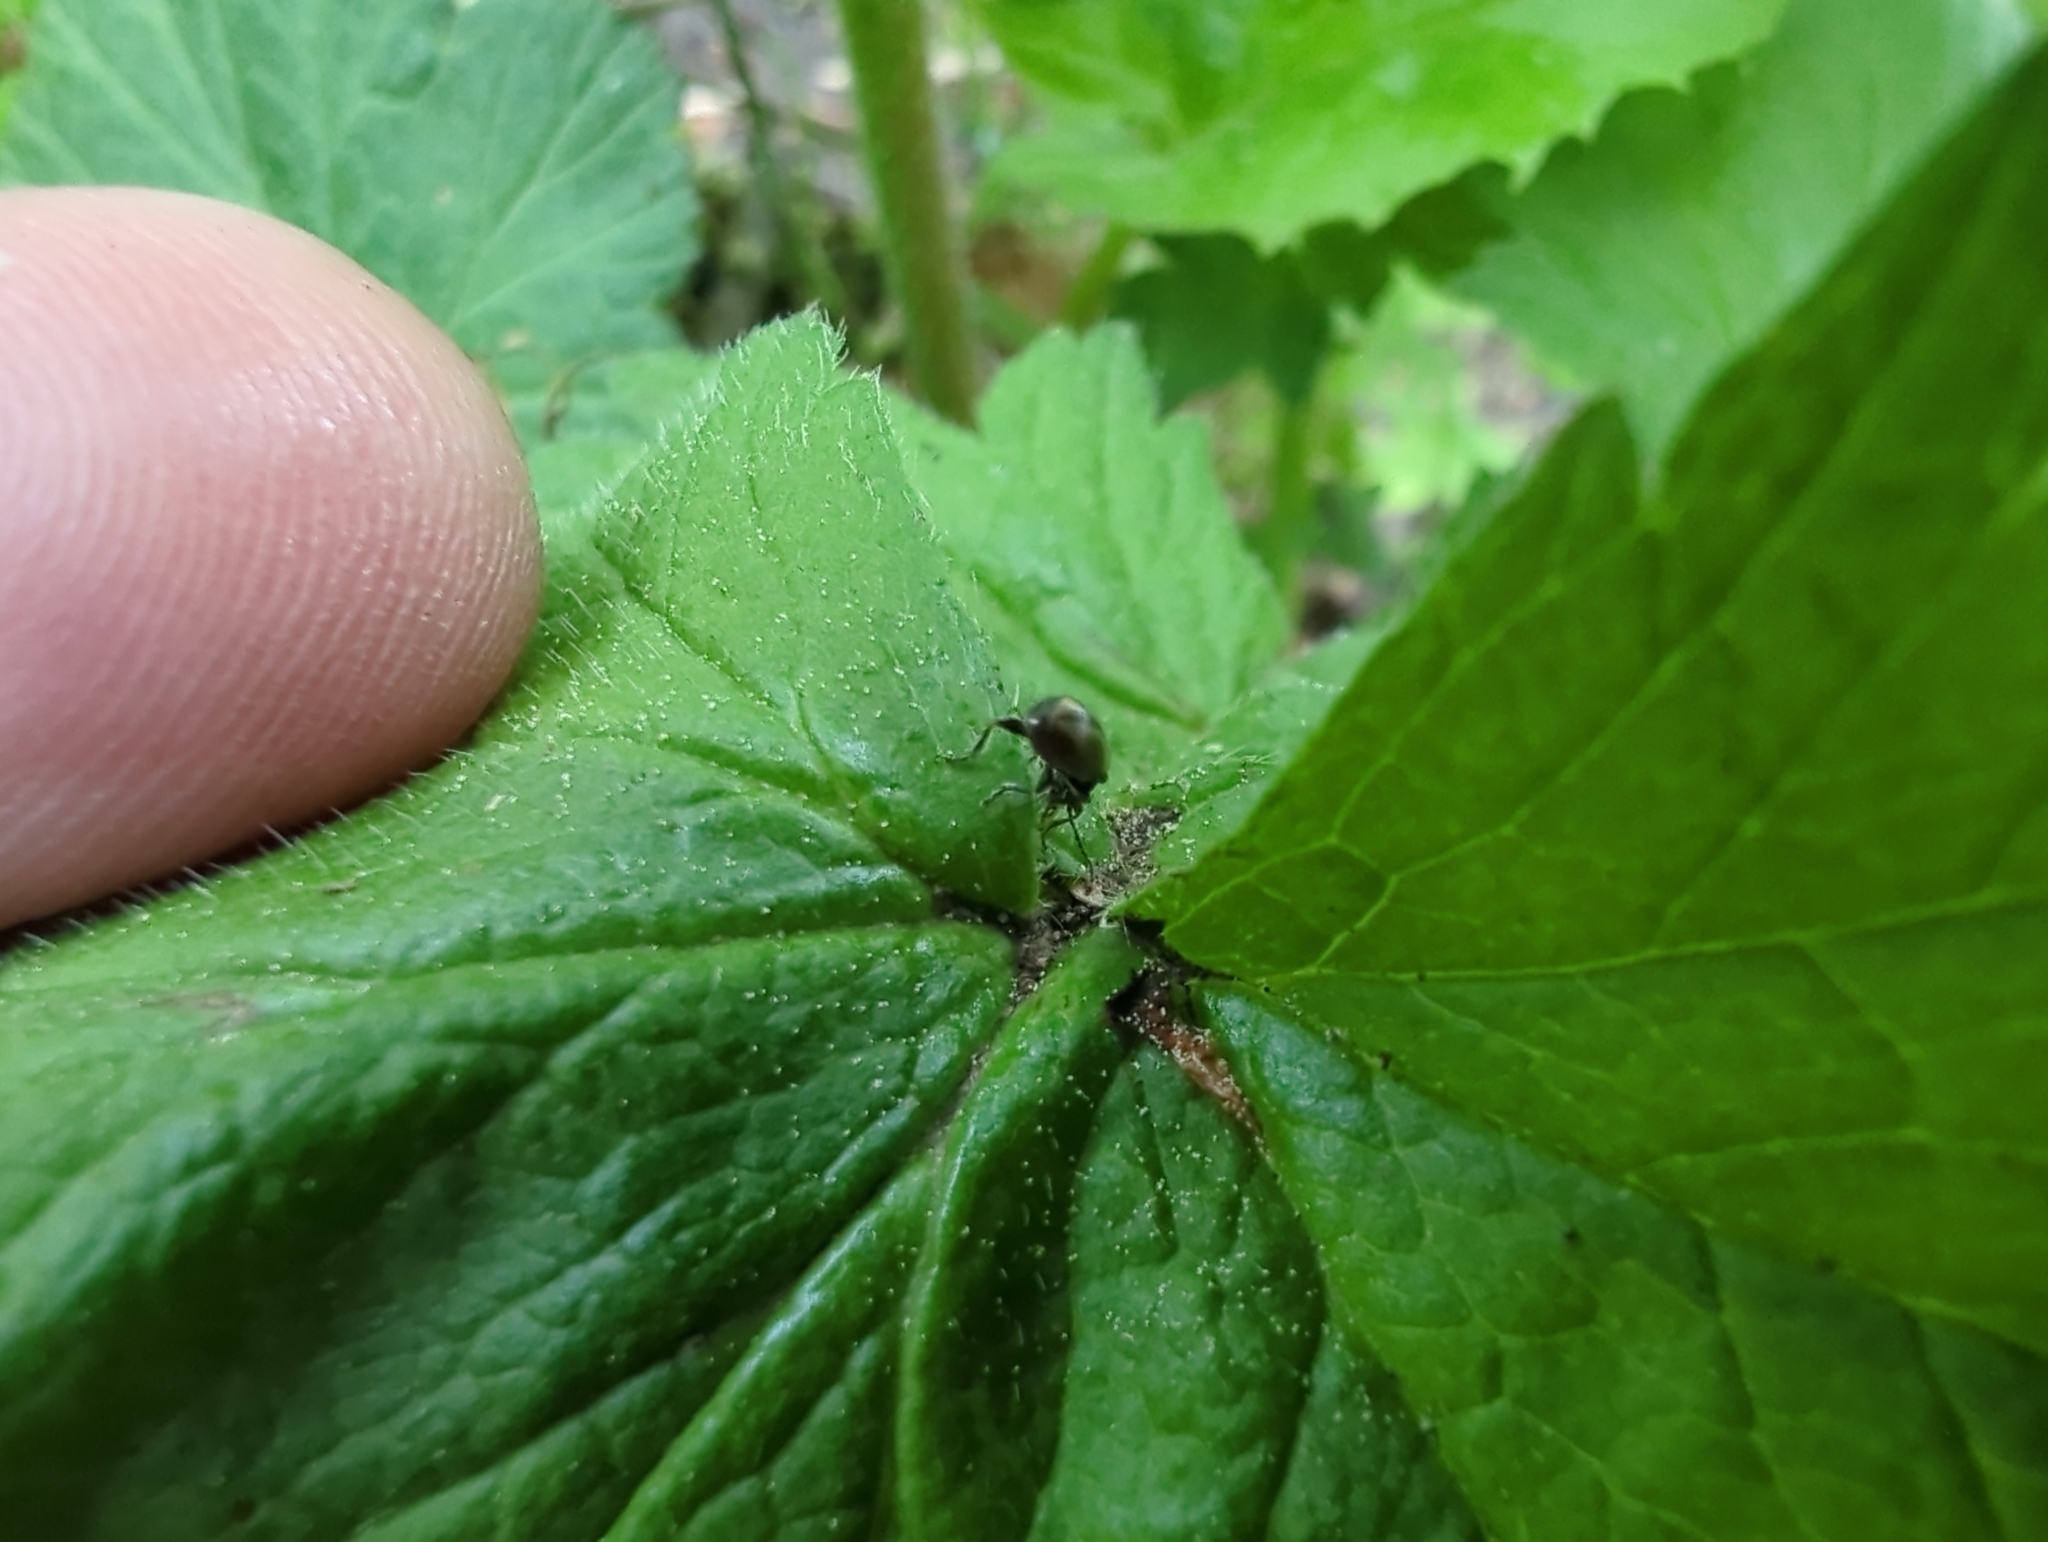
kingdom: Animalia
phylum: Arthropoda
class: Insecta
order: Coleoptera
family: Orsodacnidae
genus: Orsodacne
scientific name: Orsodacne atra
